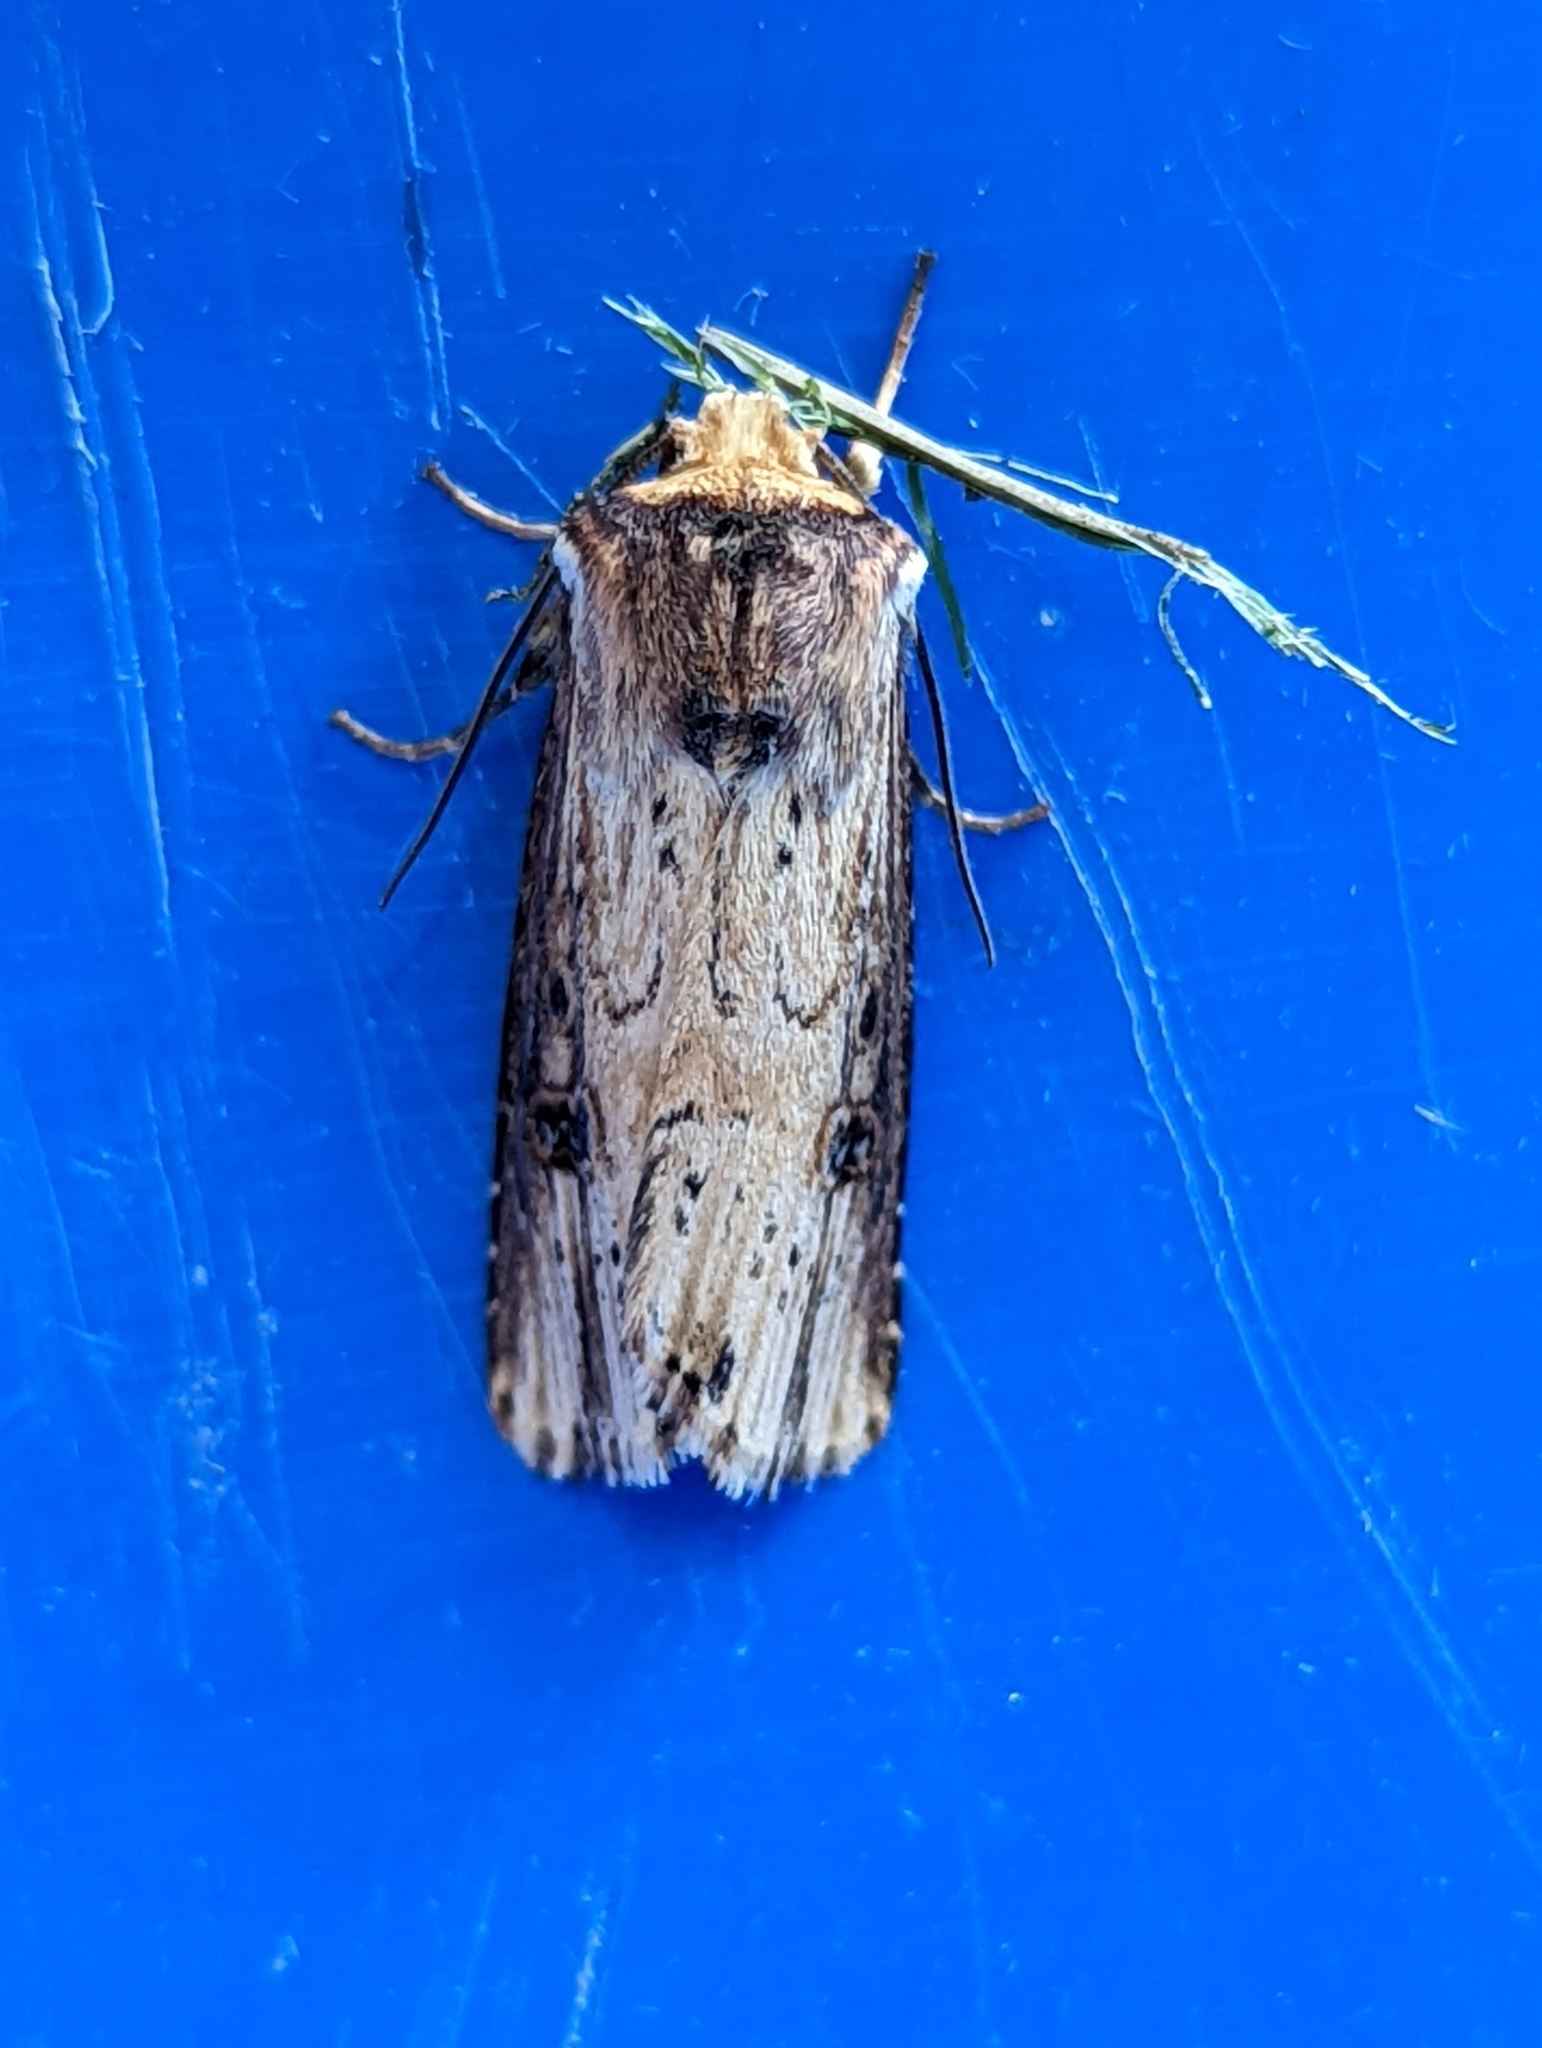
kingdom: Animalia
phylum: Arthropoda
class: Insecta
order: Lepidoptera
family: Noctuidae
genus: Axylia
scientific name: Axylia putris
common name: Flame
